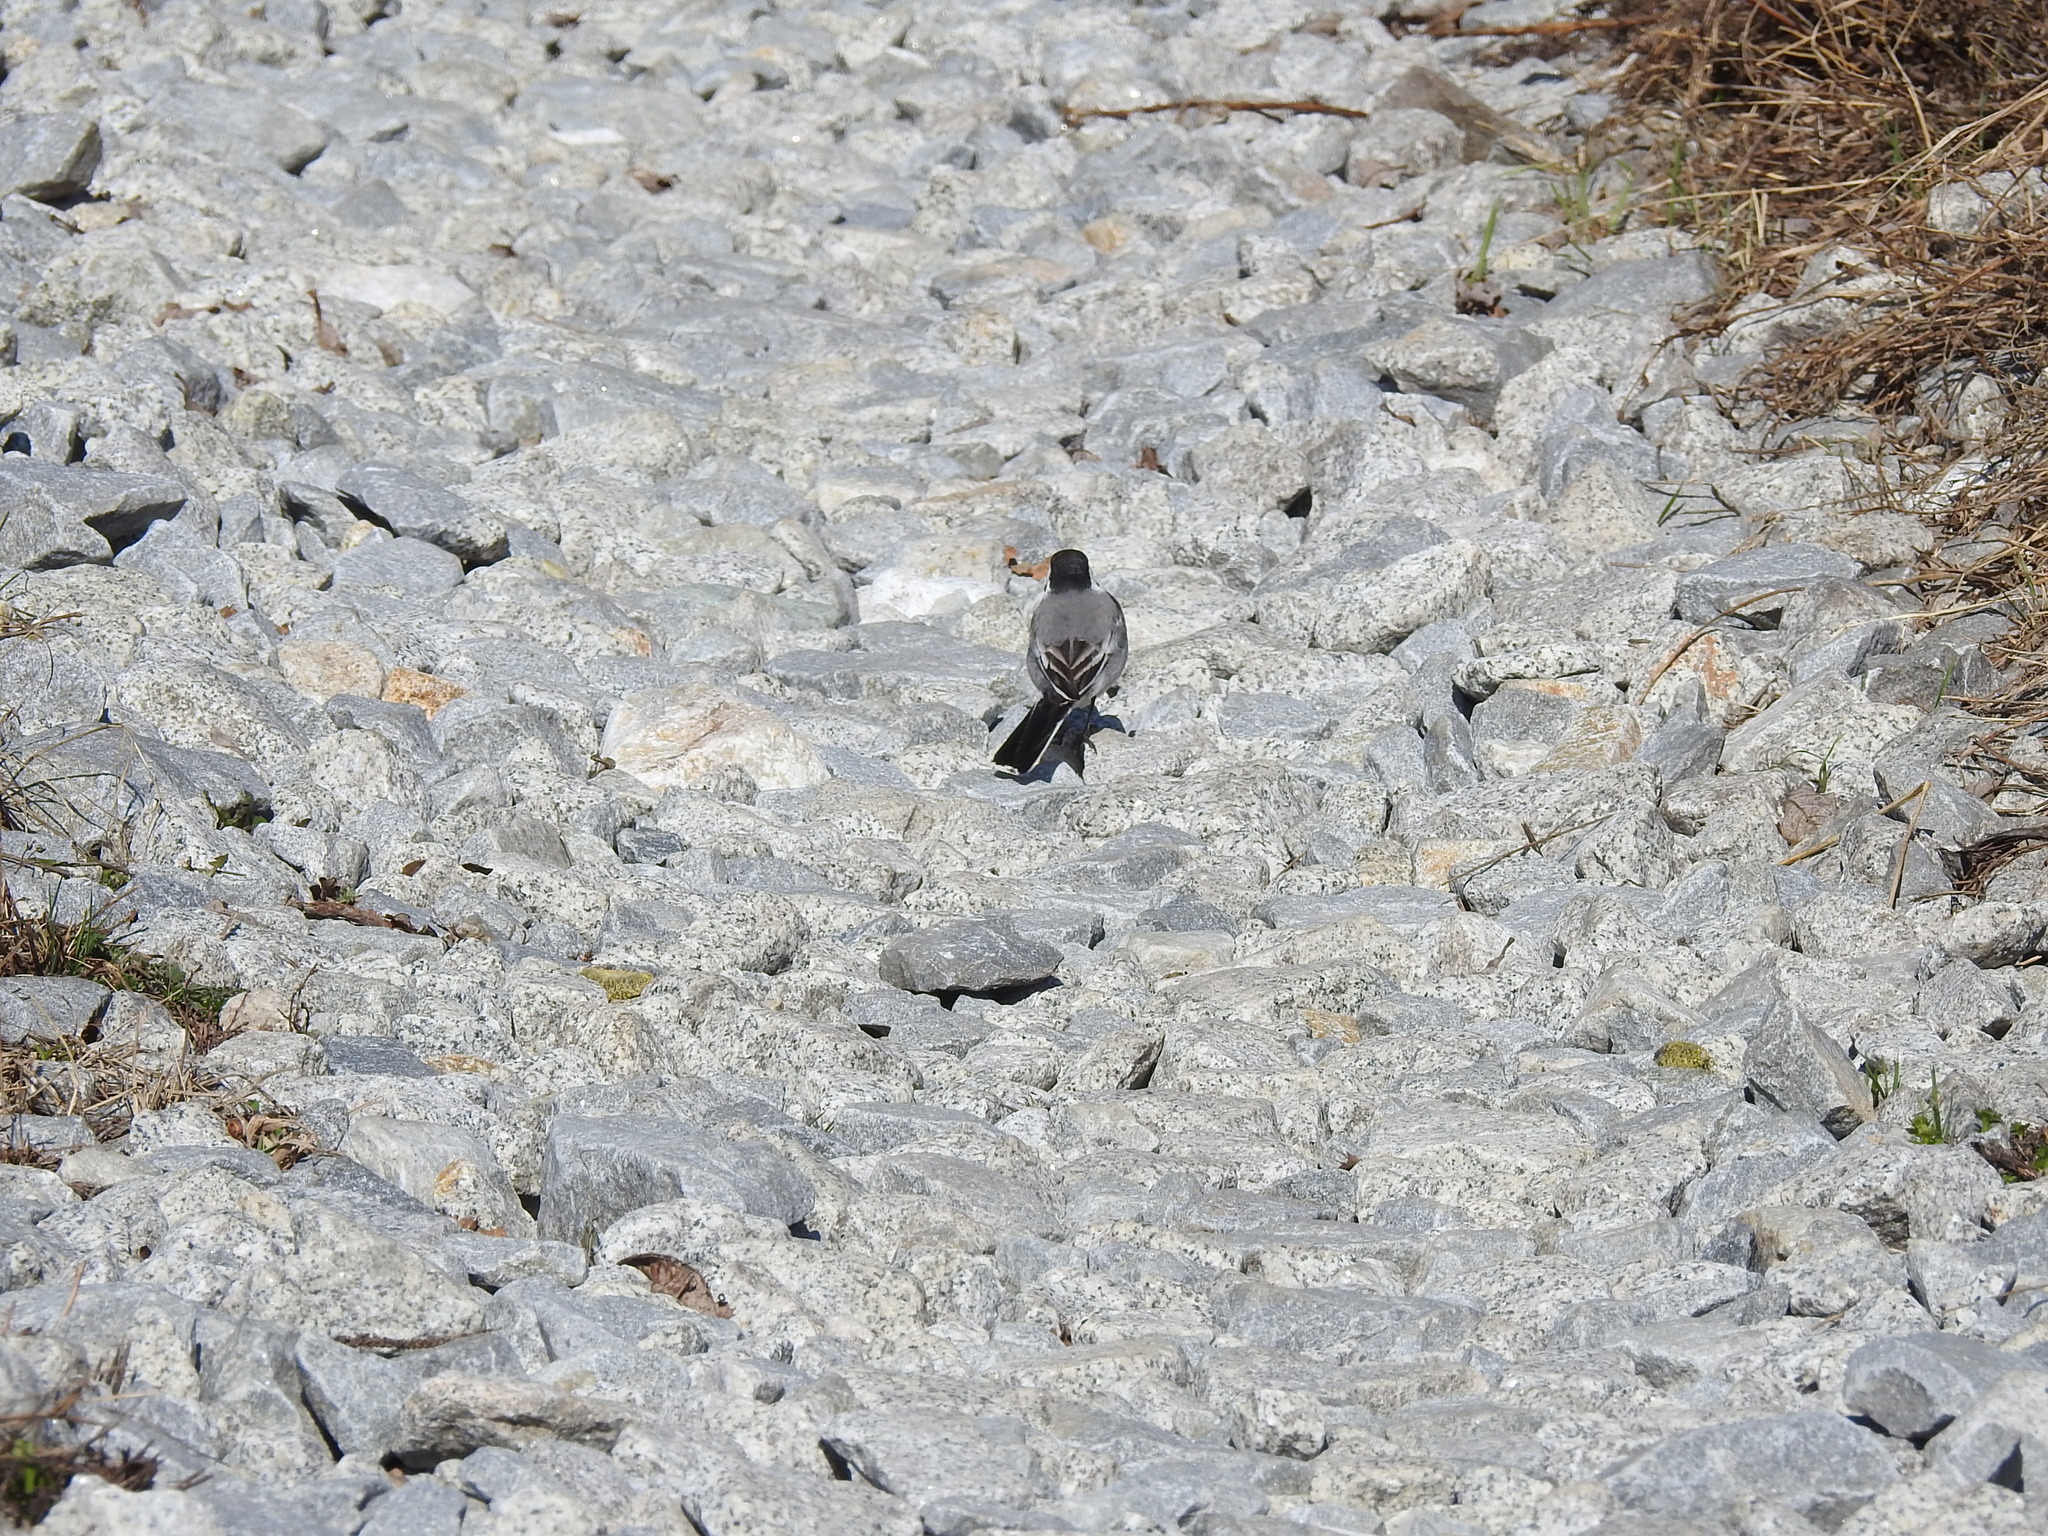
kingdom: Animalia
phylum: Chordata
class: Aves
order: Passeriformes
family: Motacillidae
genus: Motacilla
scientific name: Motacilla alba
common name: White wagtail
